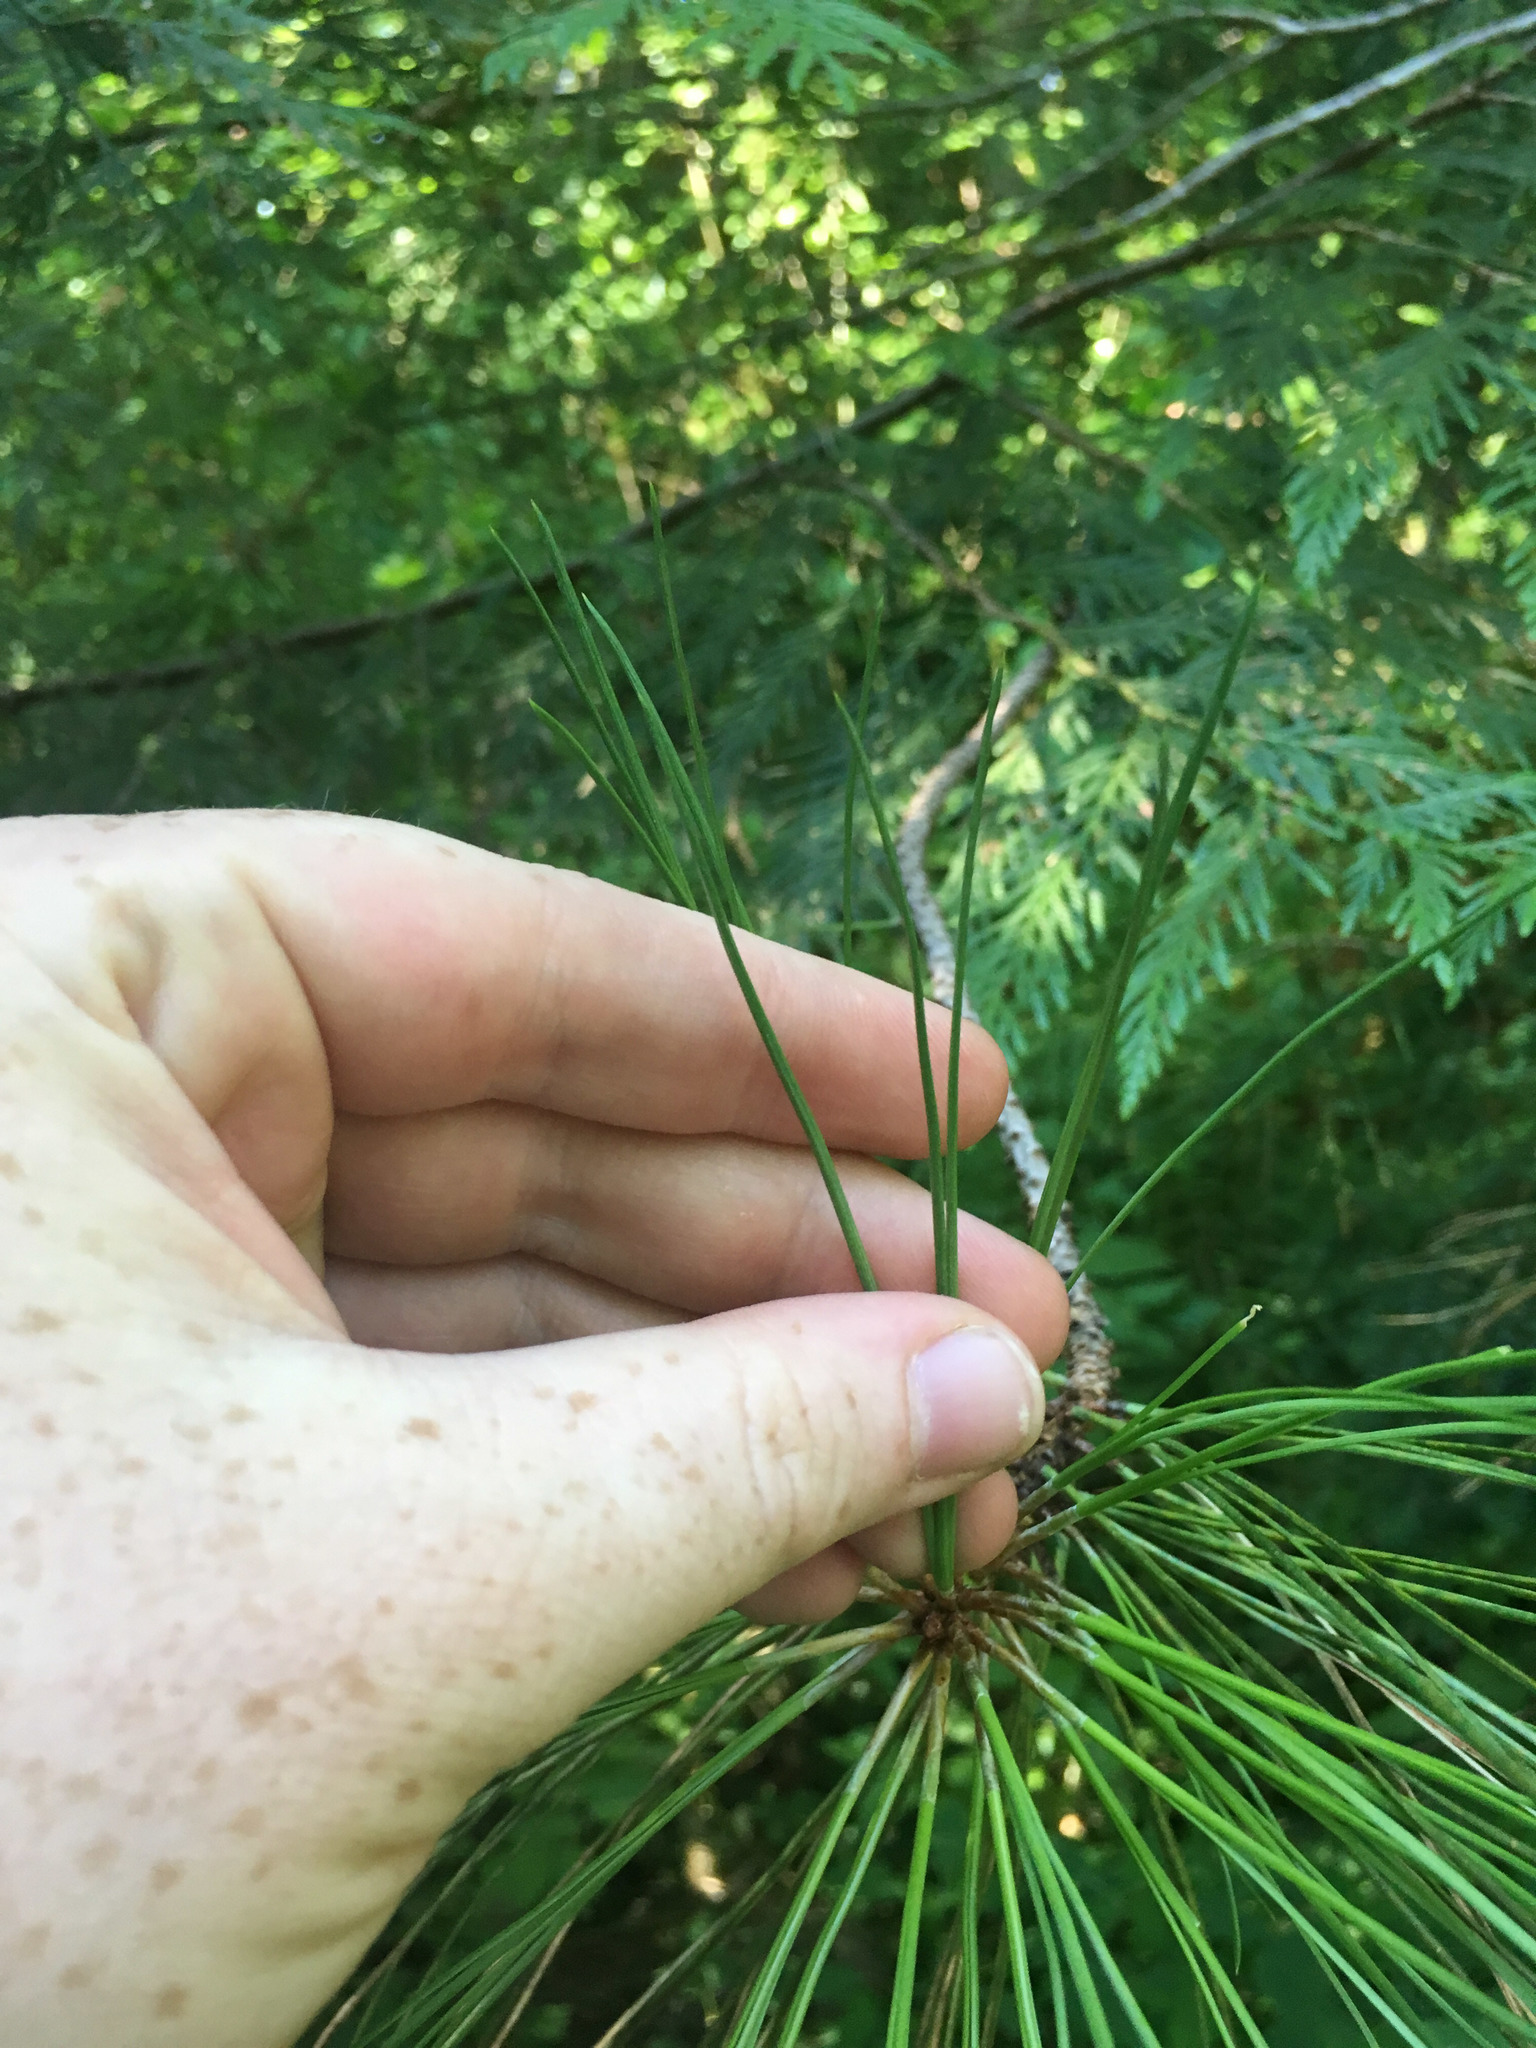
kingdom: Plantae
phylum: Tracheophyta
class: Pinopsida
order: Pinales
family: Pinaceae
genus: Pinus
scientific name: Pinus ponderosa
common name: Western yellow-pine
